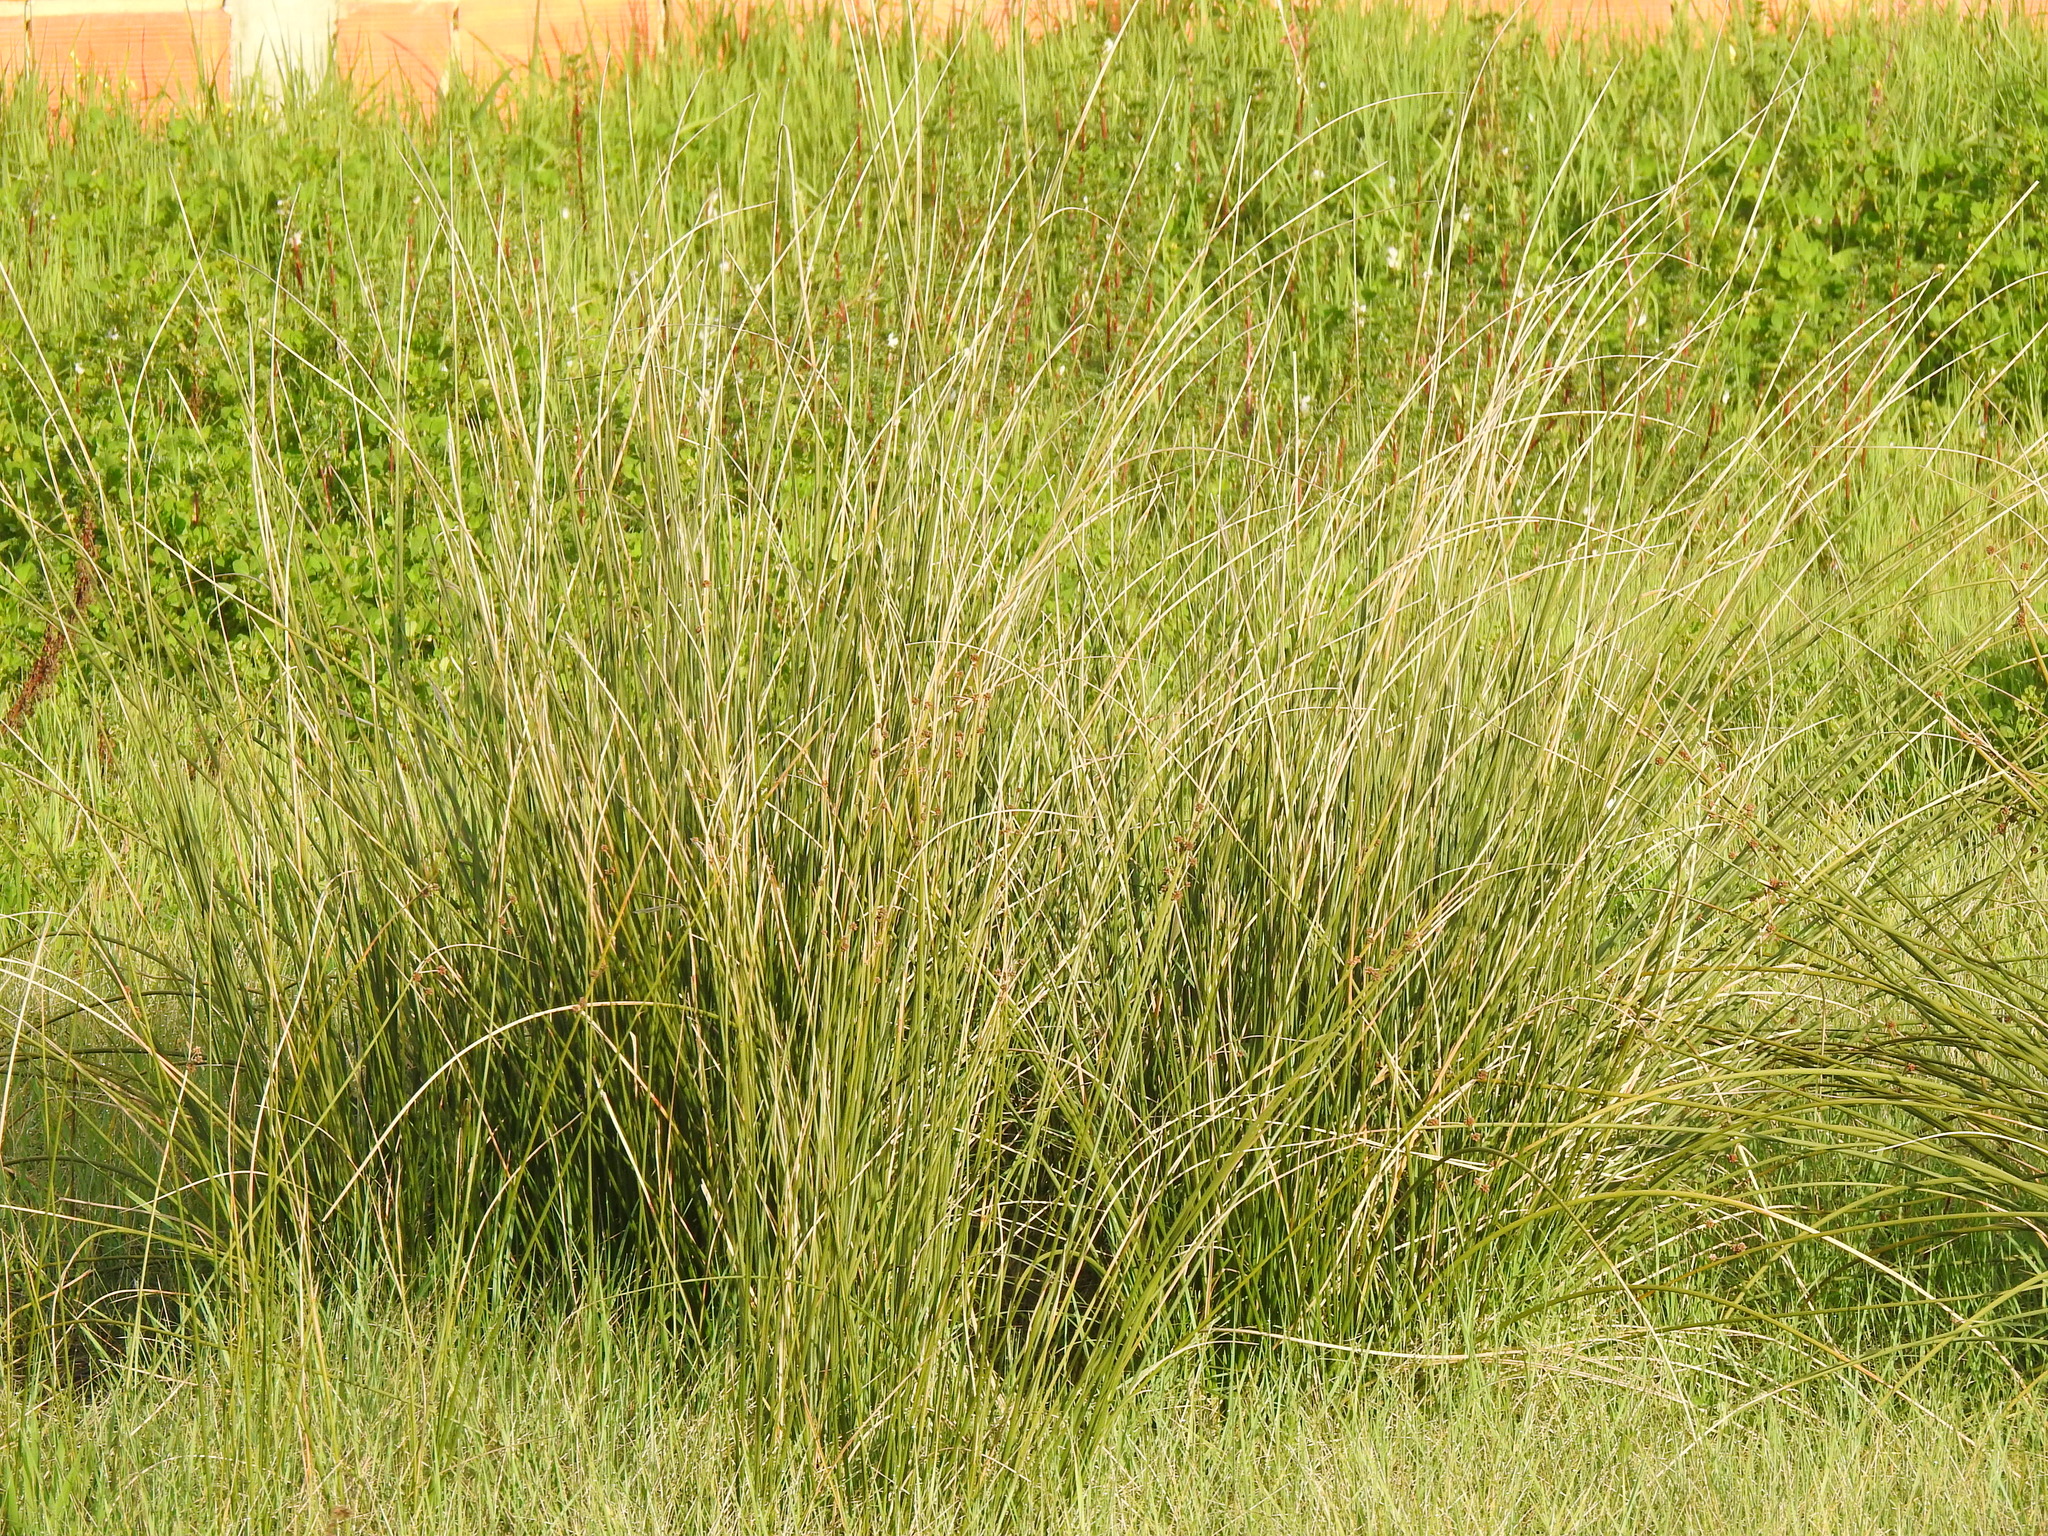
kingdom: Plantae
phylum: Tracheophyta
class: Liliopsida
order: Poales
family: Cyperaceae
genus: Scirpoides
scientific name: Scirpoides holoschoenus
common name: Round-headed club-rush
